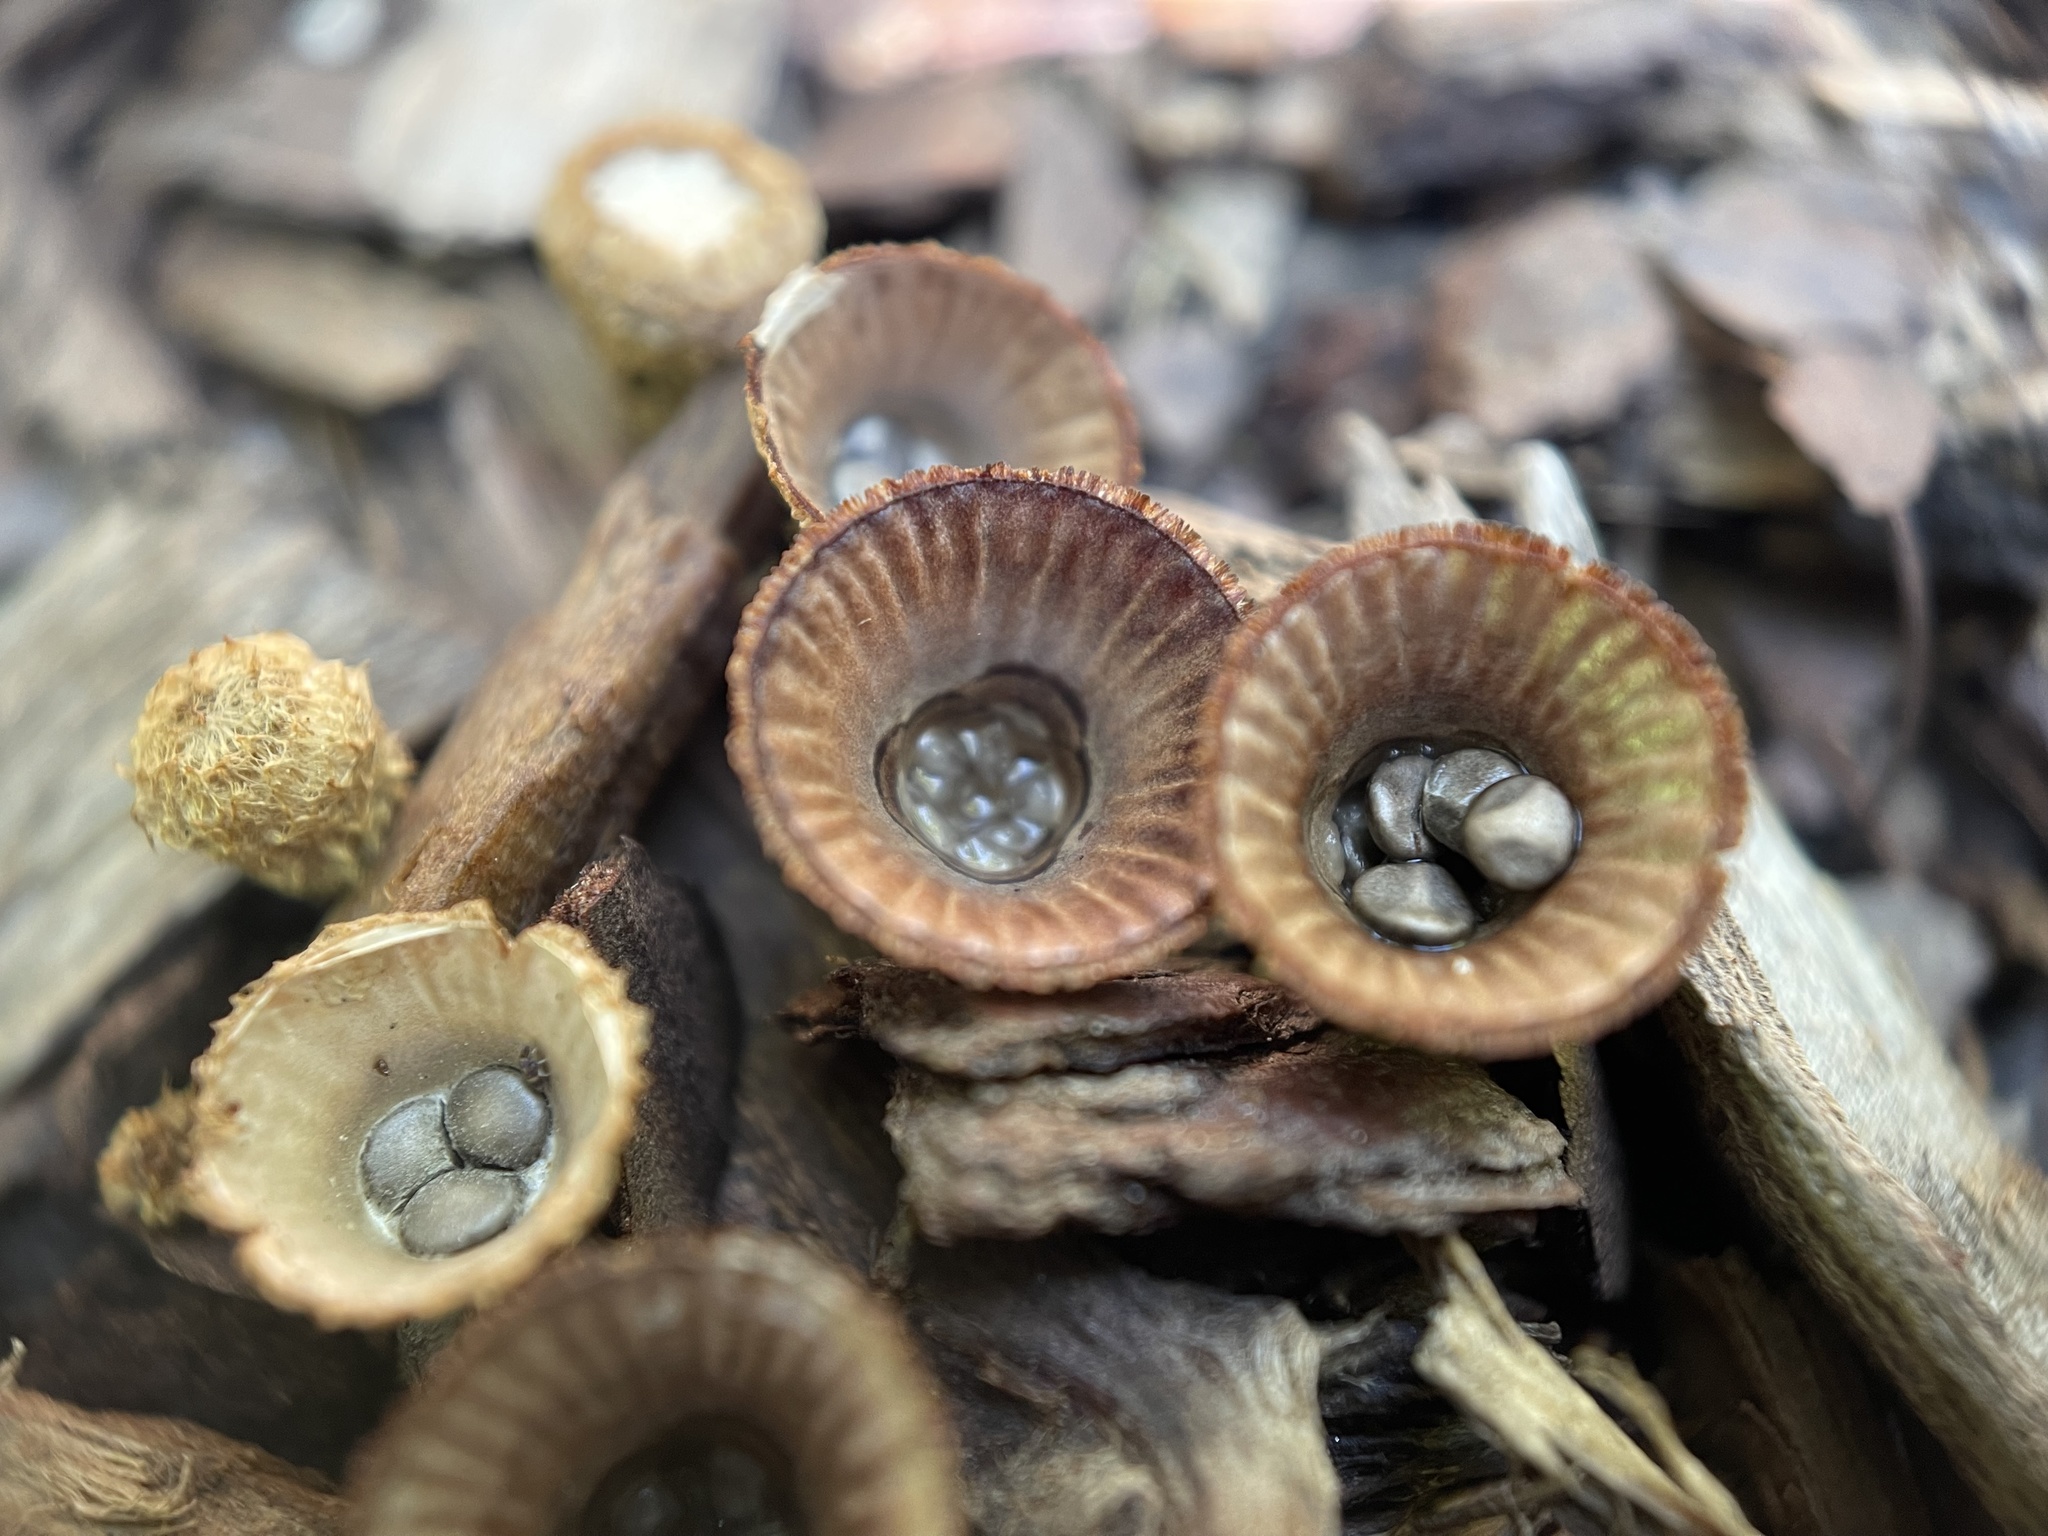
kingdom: Fungi
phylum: Basidiomycota
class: Agaricomycetes
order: Agaricales
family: Agaricaceae
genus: Cyathus
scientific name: Cyathus striatus
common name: Fluted bird's nest
